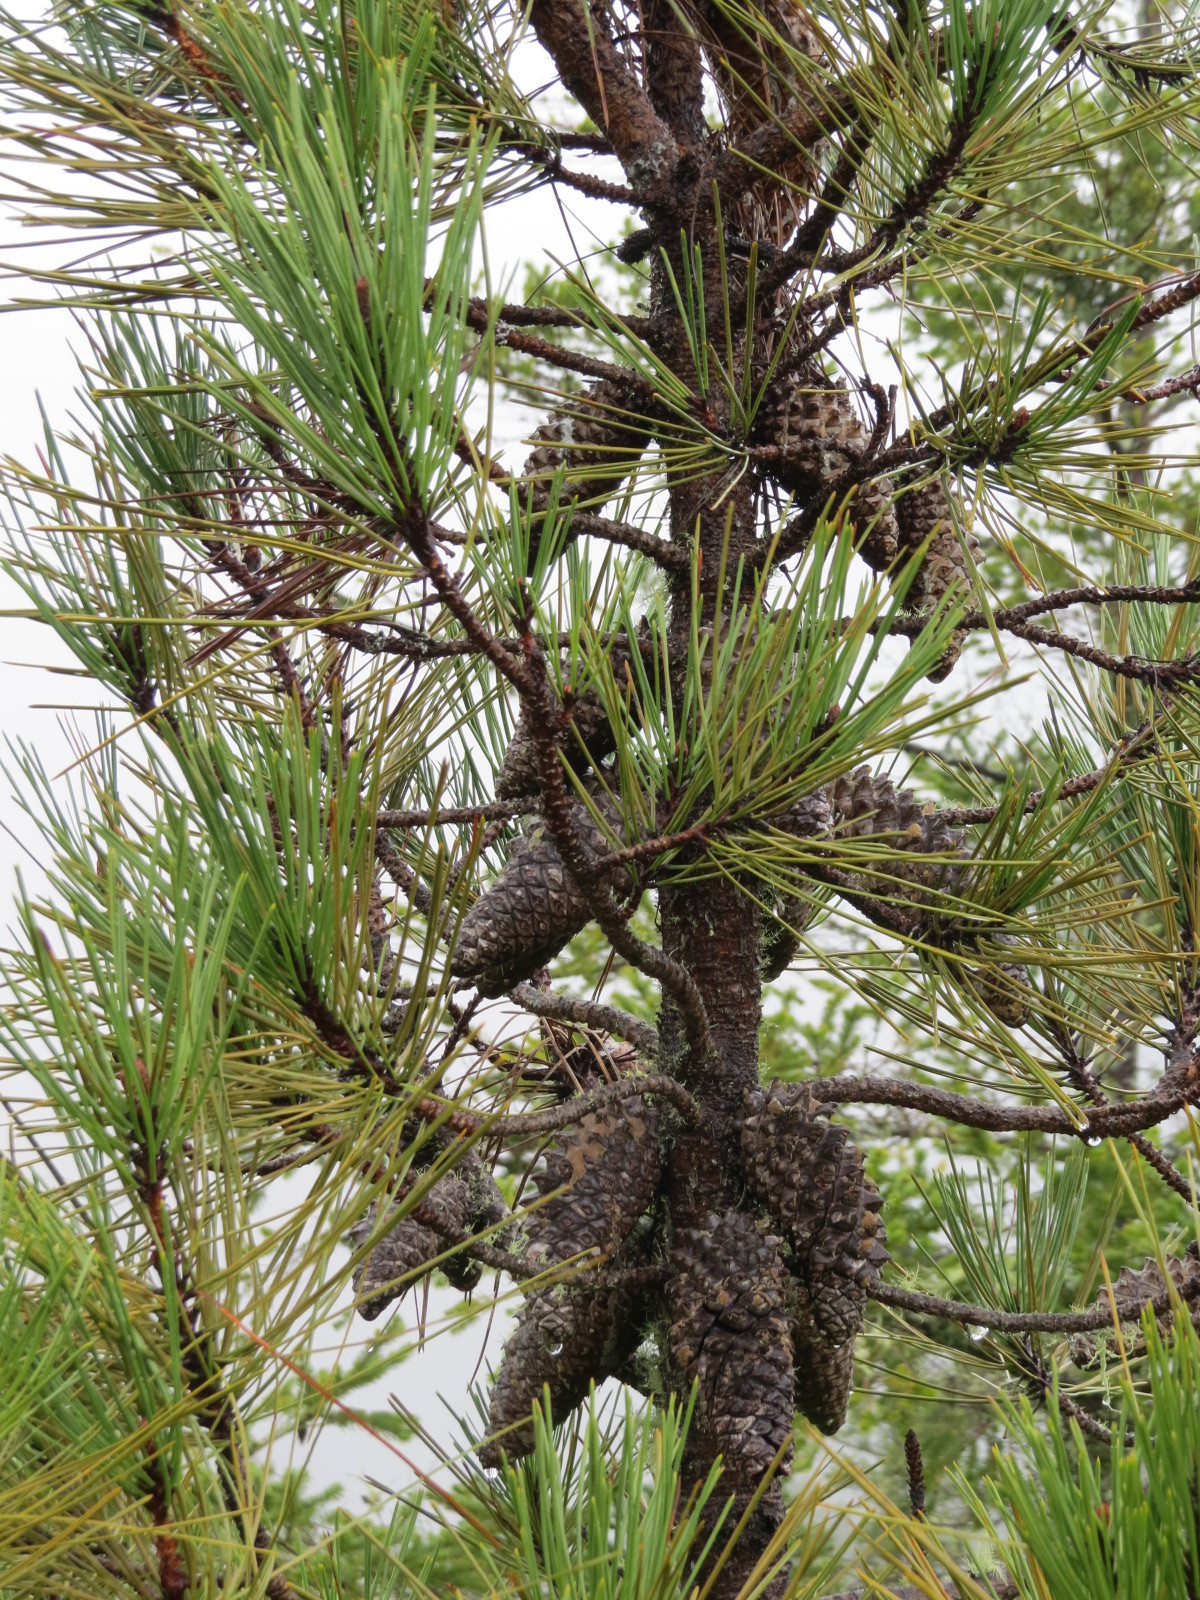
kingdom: Plantae
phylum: Tracheophyta
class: Pinopsida
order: Pinales
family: Pinaceae
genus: Pinus
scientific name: Pinus attenuata
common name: Knobcone pine
